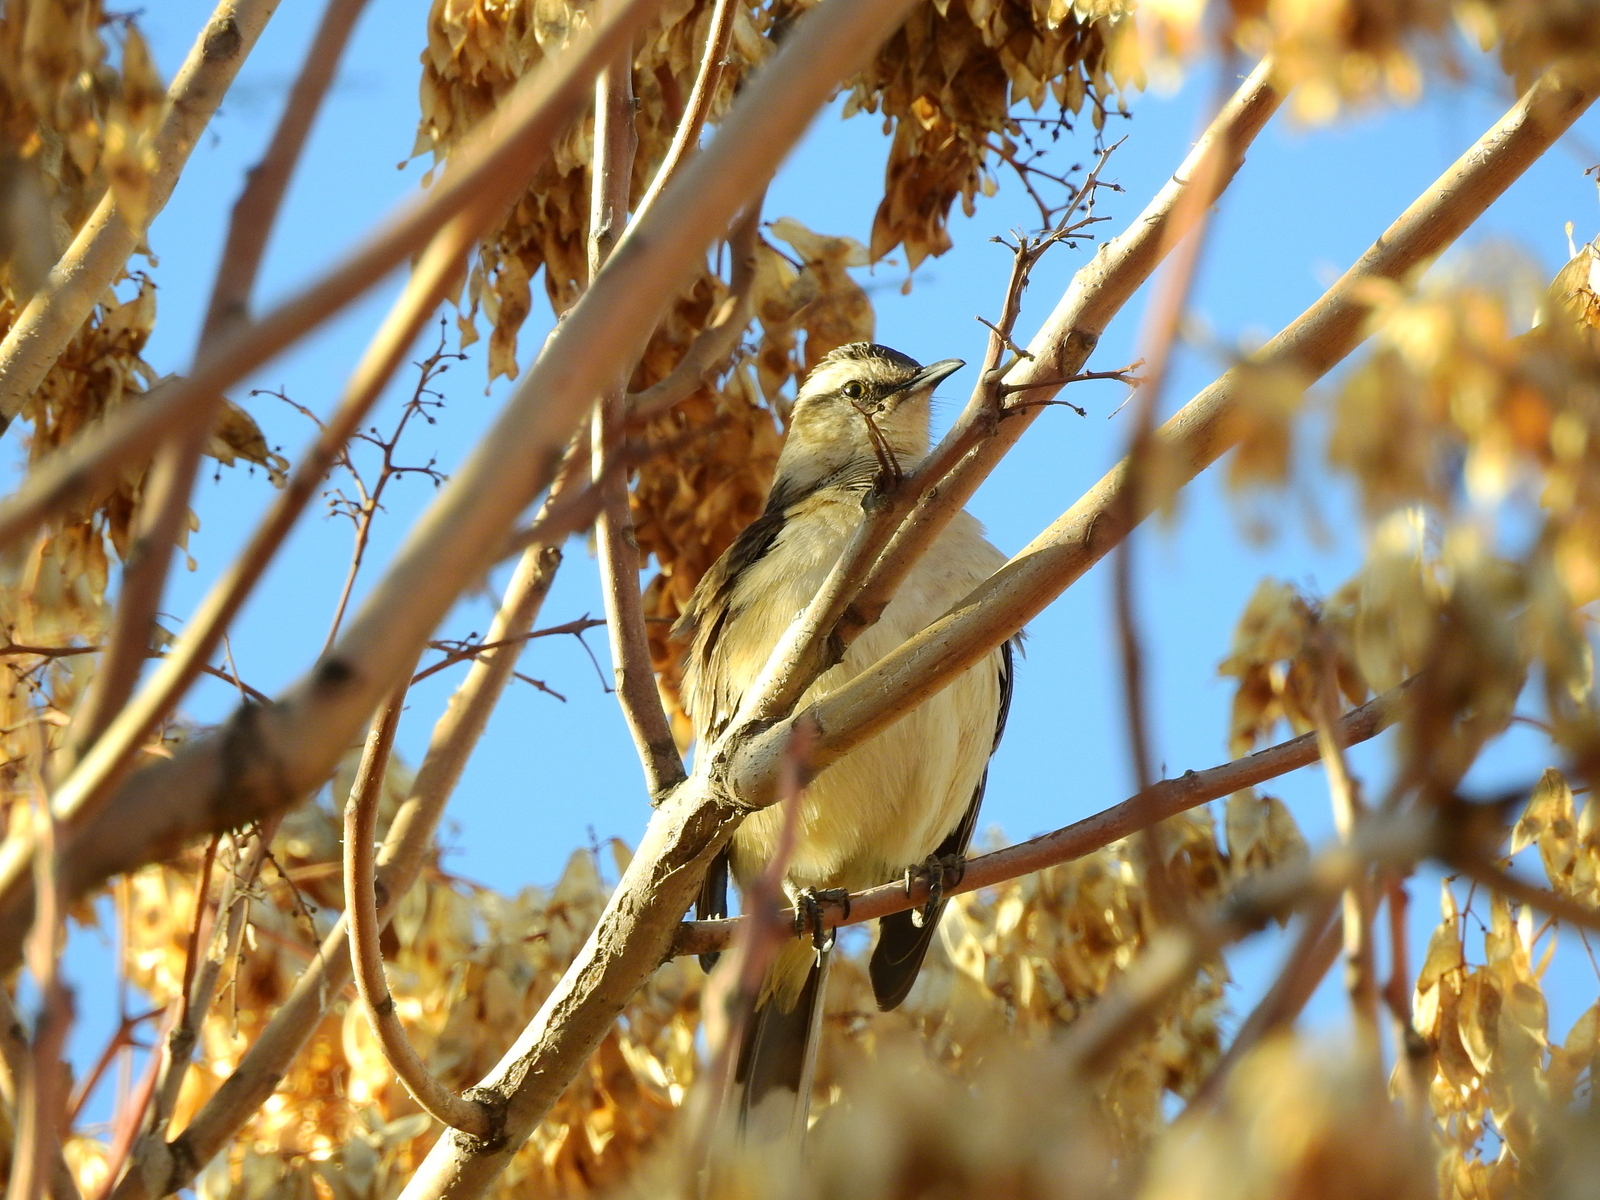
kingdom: Animalia
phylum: Chordata
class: Aves
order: Passeriformes
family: Mimidae
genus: Mimus
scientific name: Mimus saturninus
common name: Chalk-browed mockingbird
